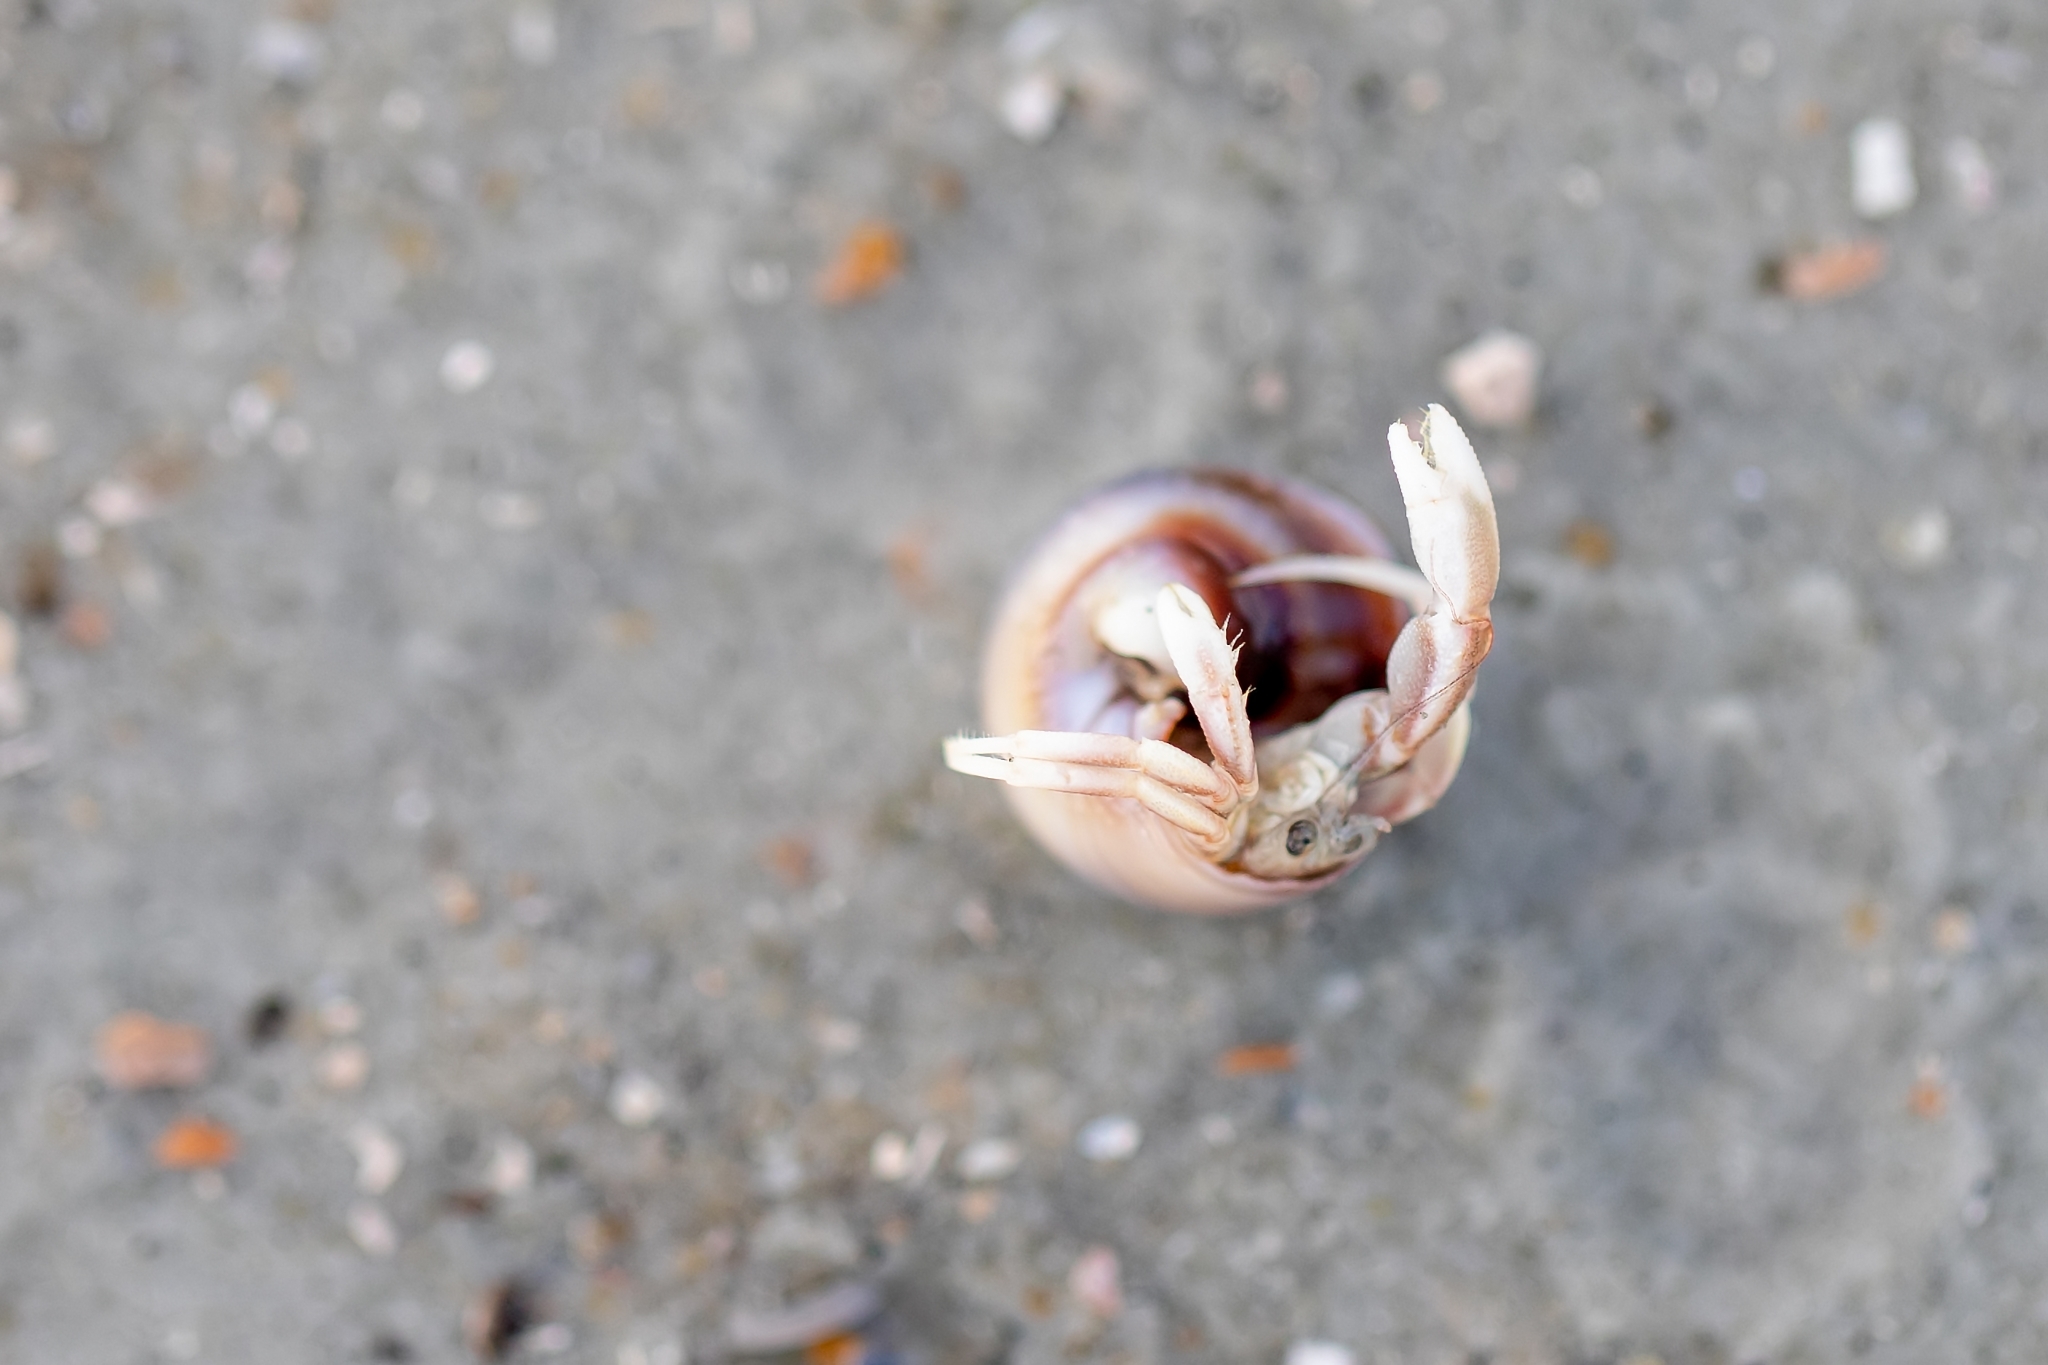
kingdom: Animalia
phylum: Arthropoda
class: Malacostraca
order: Decapoda
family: Paguridae
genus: Pagurus
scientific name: Pagurus longicarpus
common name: Long-armed hermit crab
